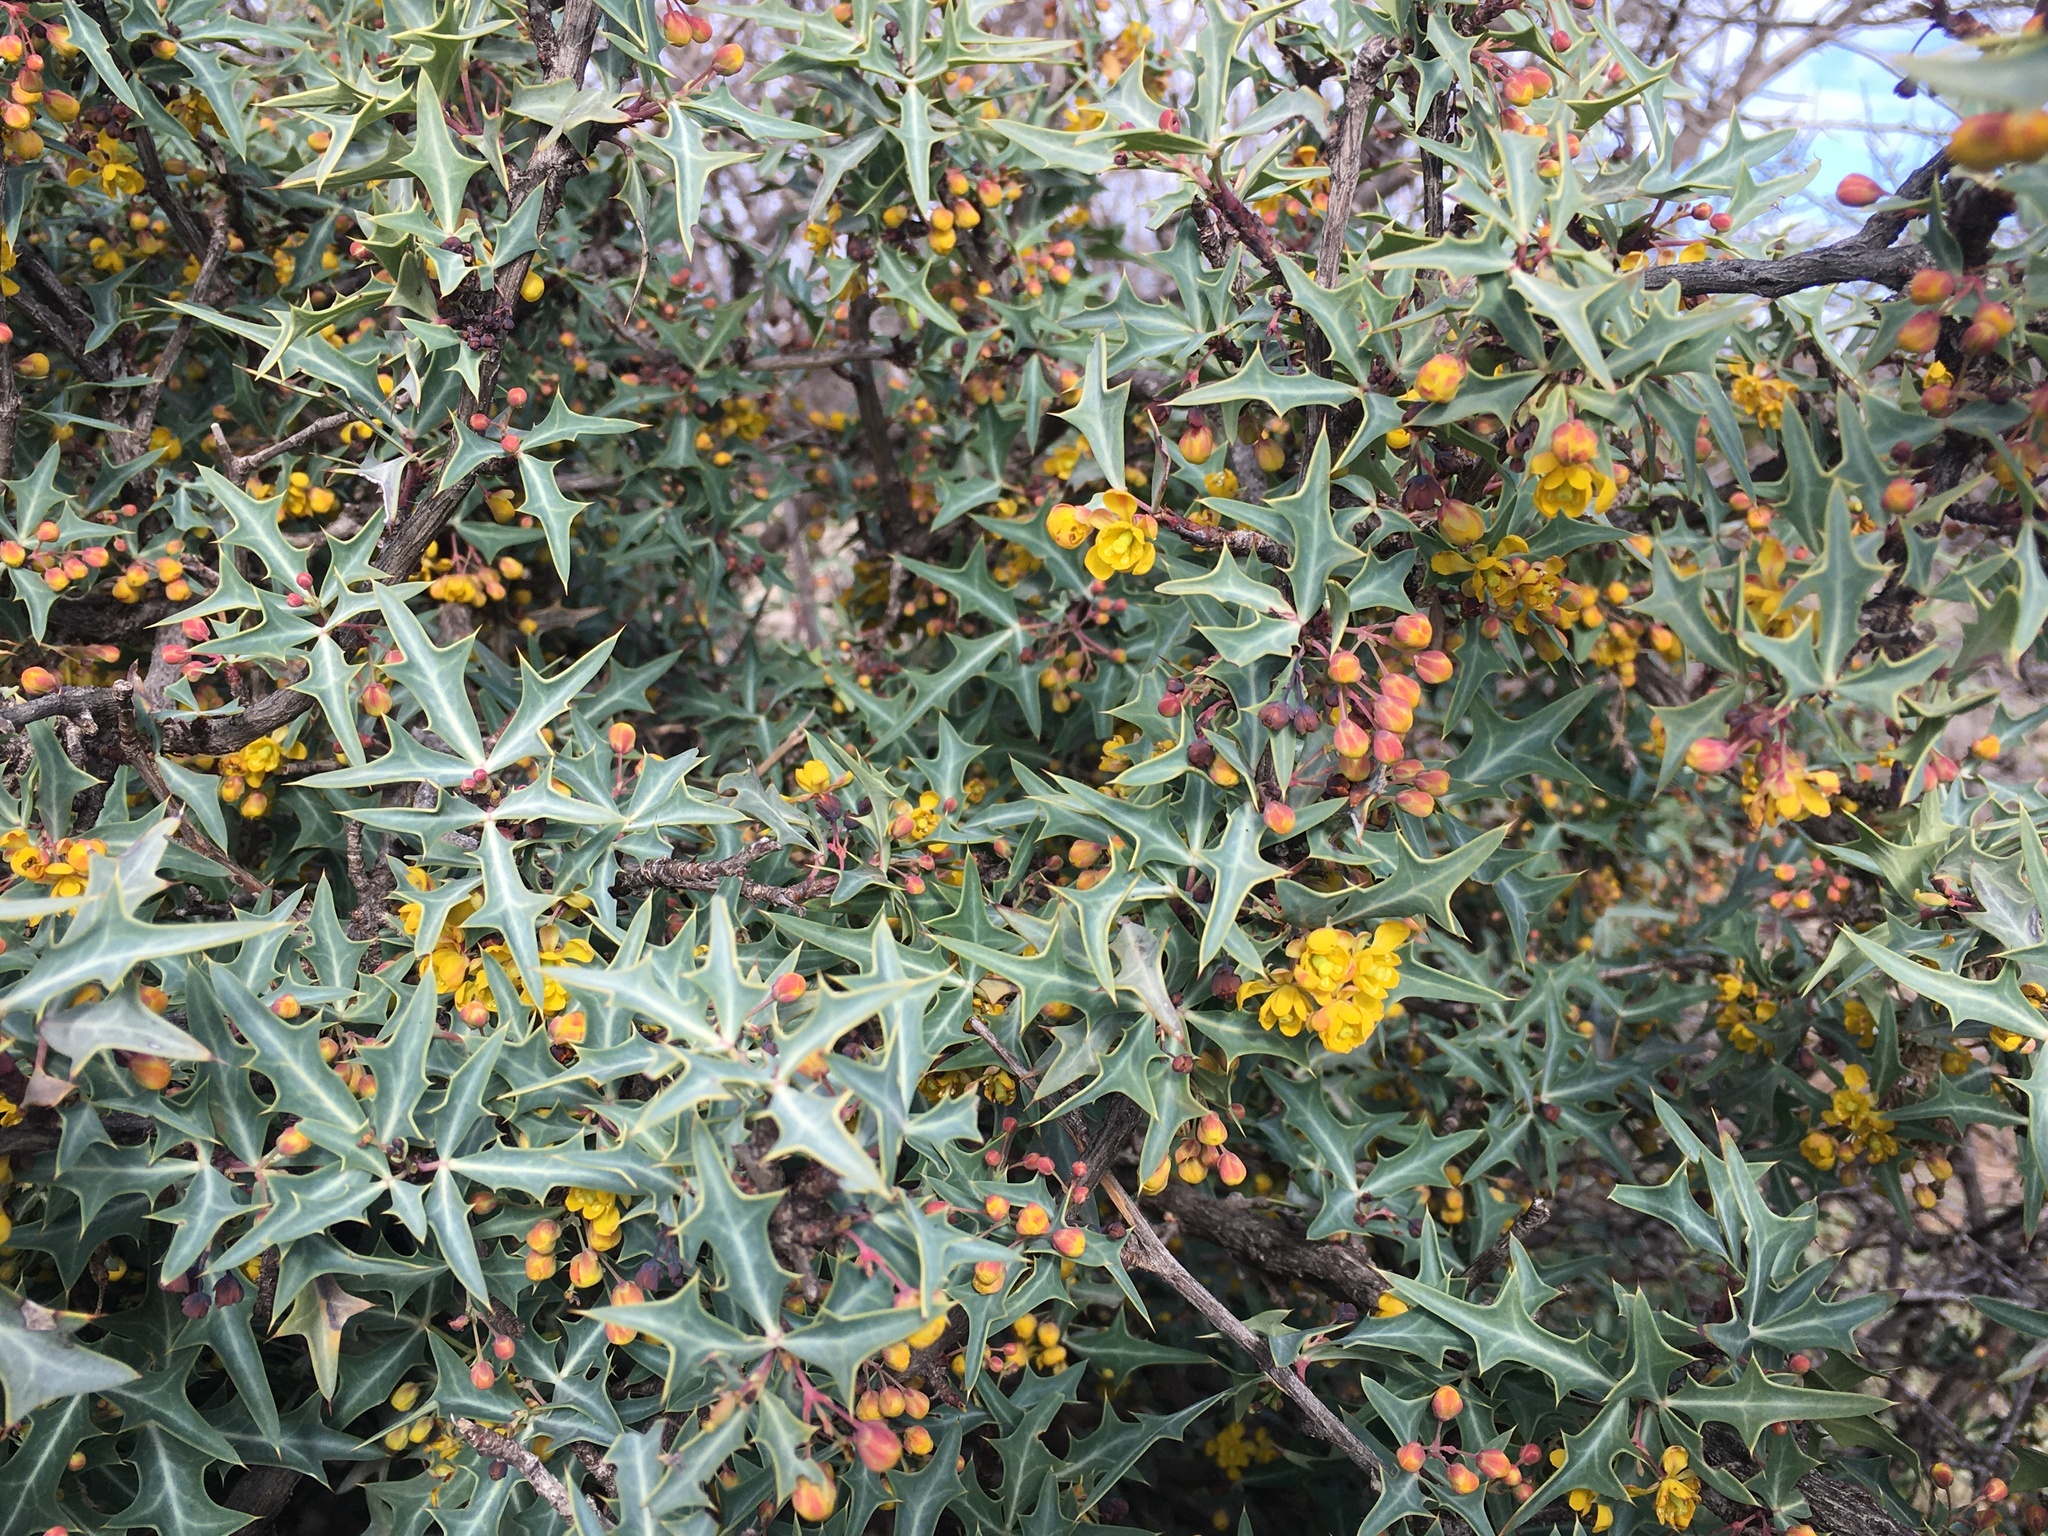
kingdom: Plantae
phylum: Tracheophyta
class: Magnoliopsida
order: Ranunculales
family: Berberidaceae
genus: Alloberberis
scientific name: Alloberberis trifoliolata
